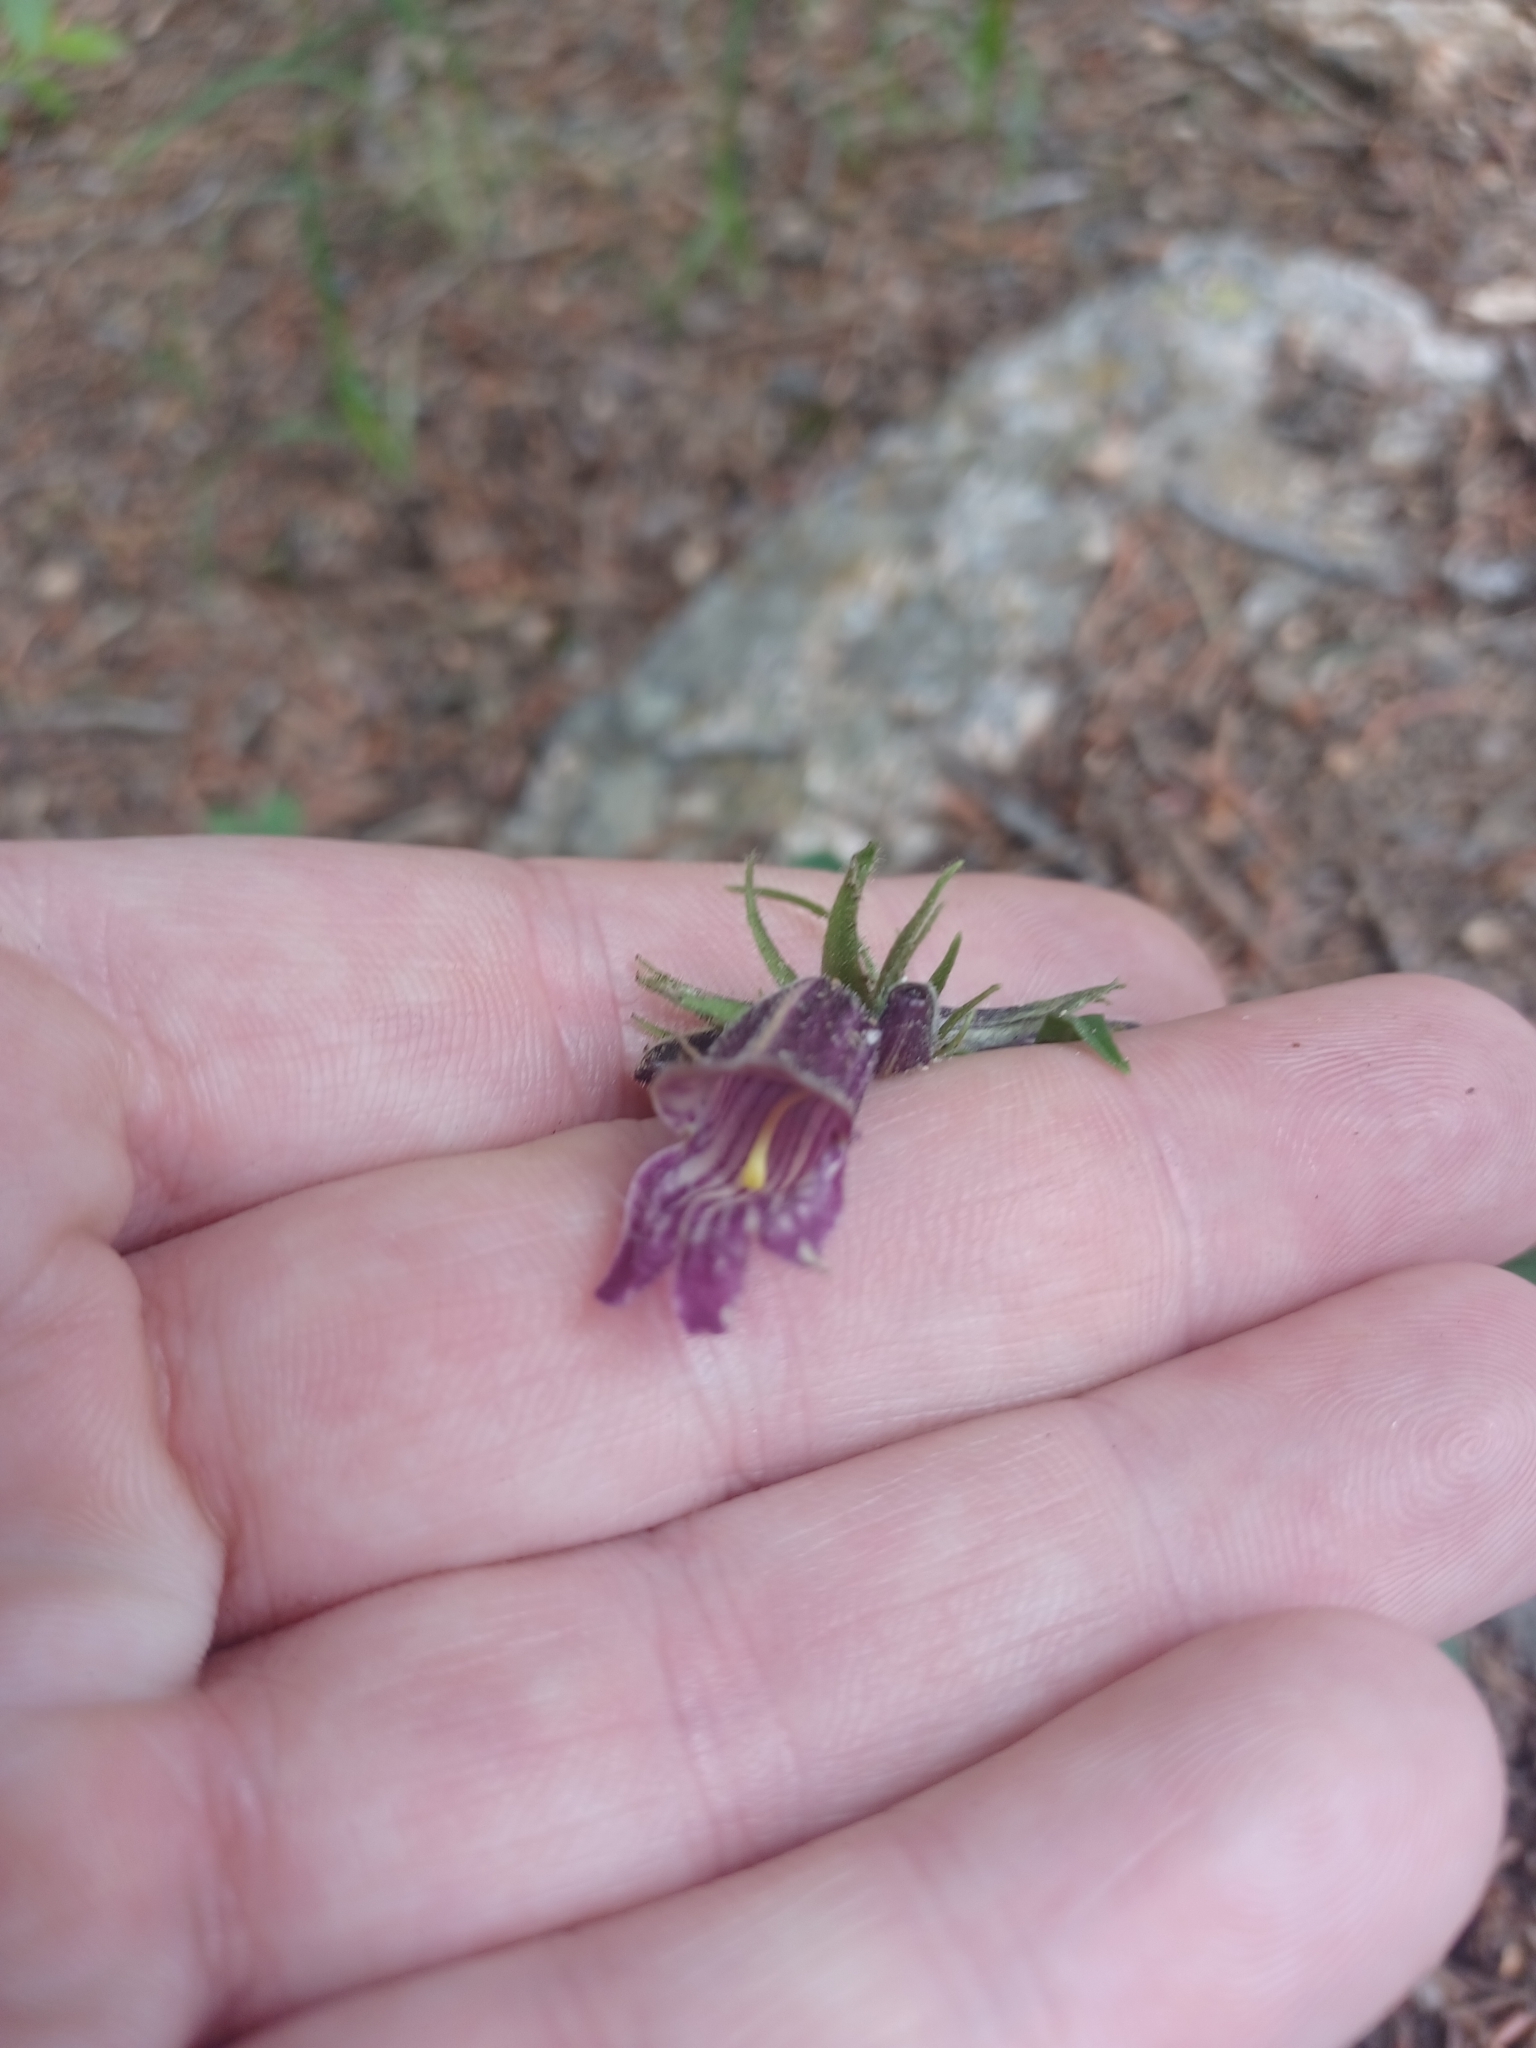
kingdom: Plantae
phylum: Tracheophyta
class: Magnoliopsida
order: Lamiales
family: Plantaginaceae
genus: Penstemon
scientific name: Penstemon whippleanus
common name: Whipple's penstemon
